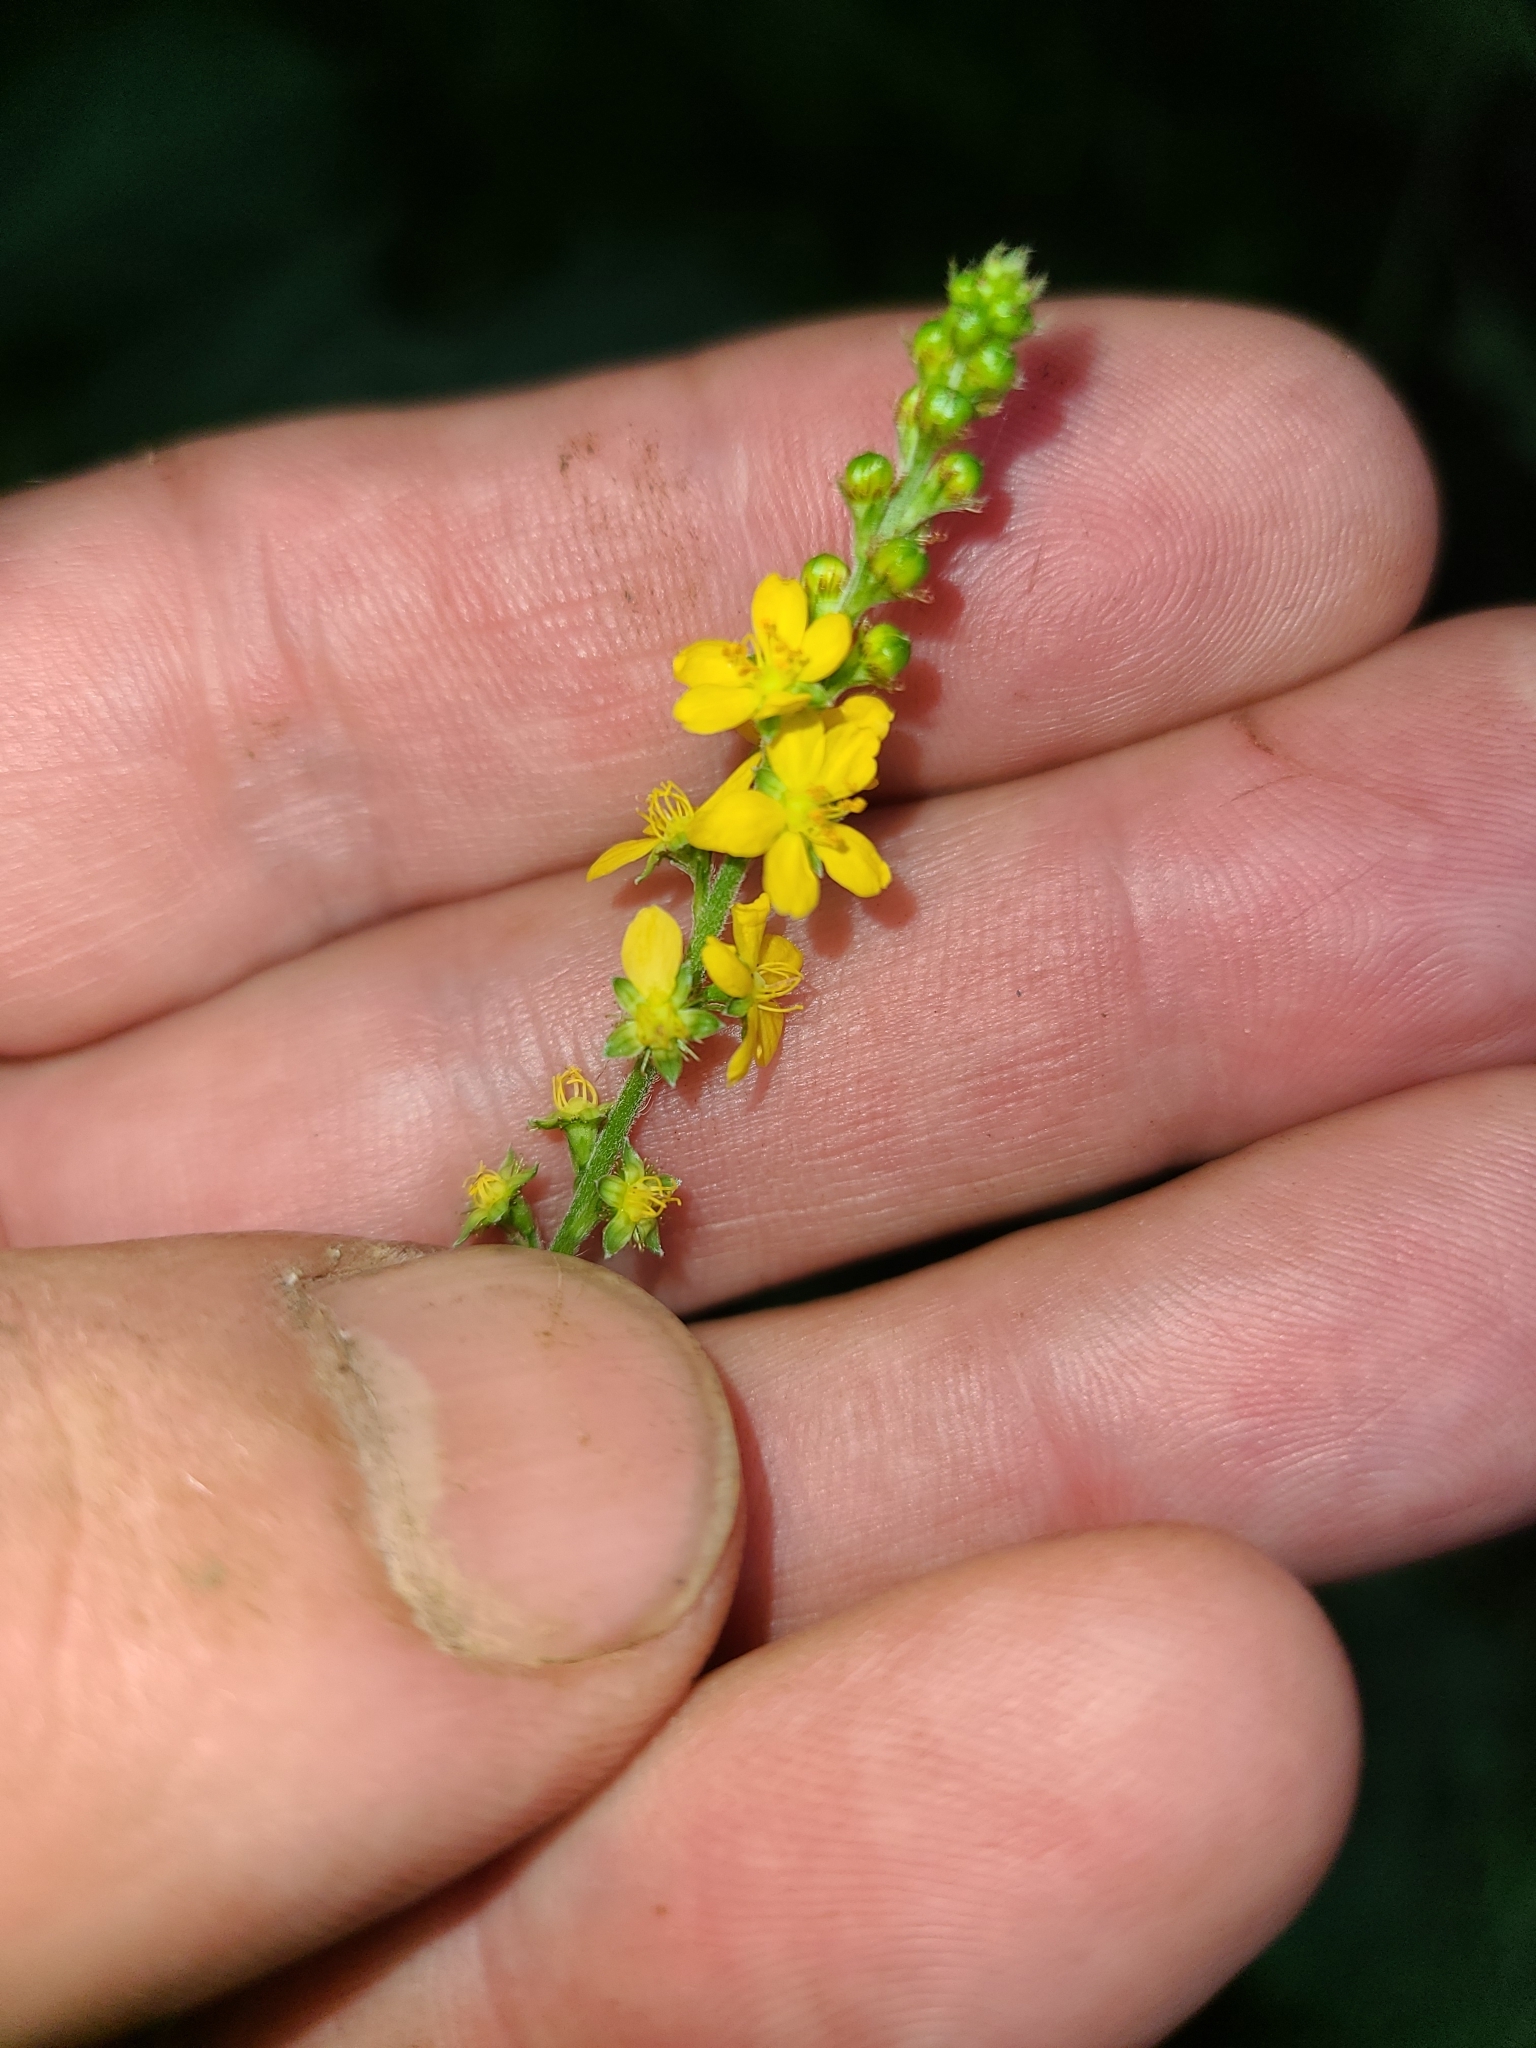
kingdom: Plantae
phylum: Tracheophyta
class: Magnoliopsida
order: Rosales
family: Rosaceae
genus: Agrimonia
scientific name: Agrimonia pubescens
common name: Downy agrimony
